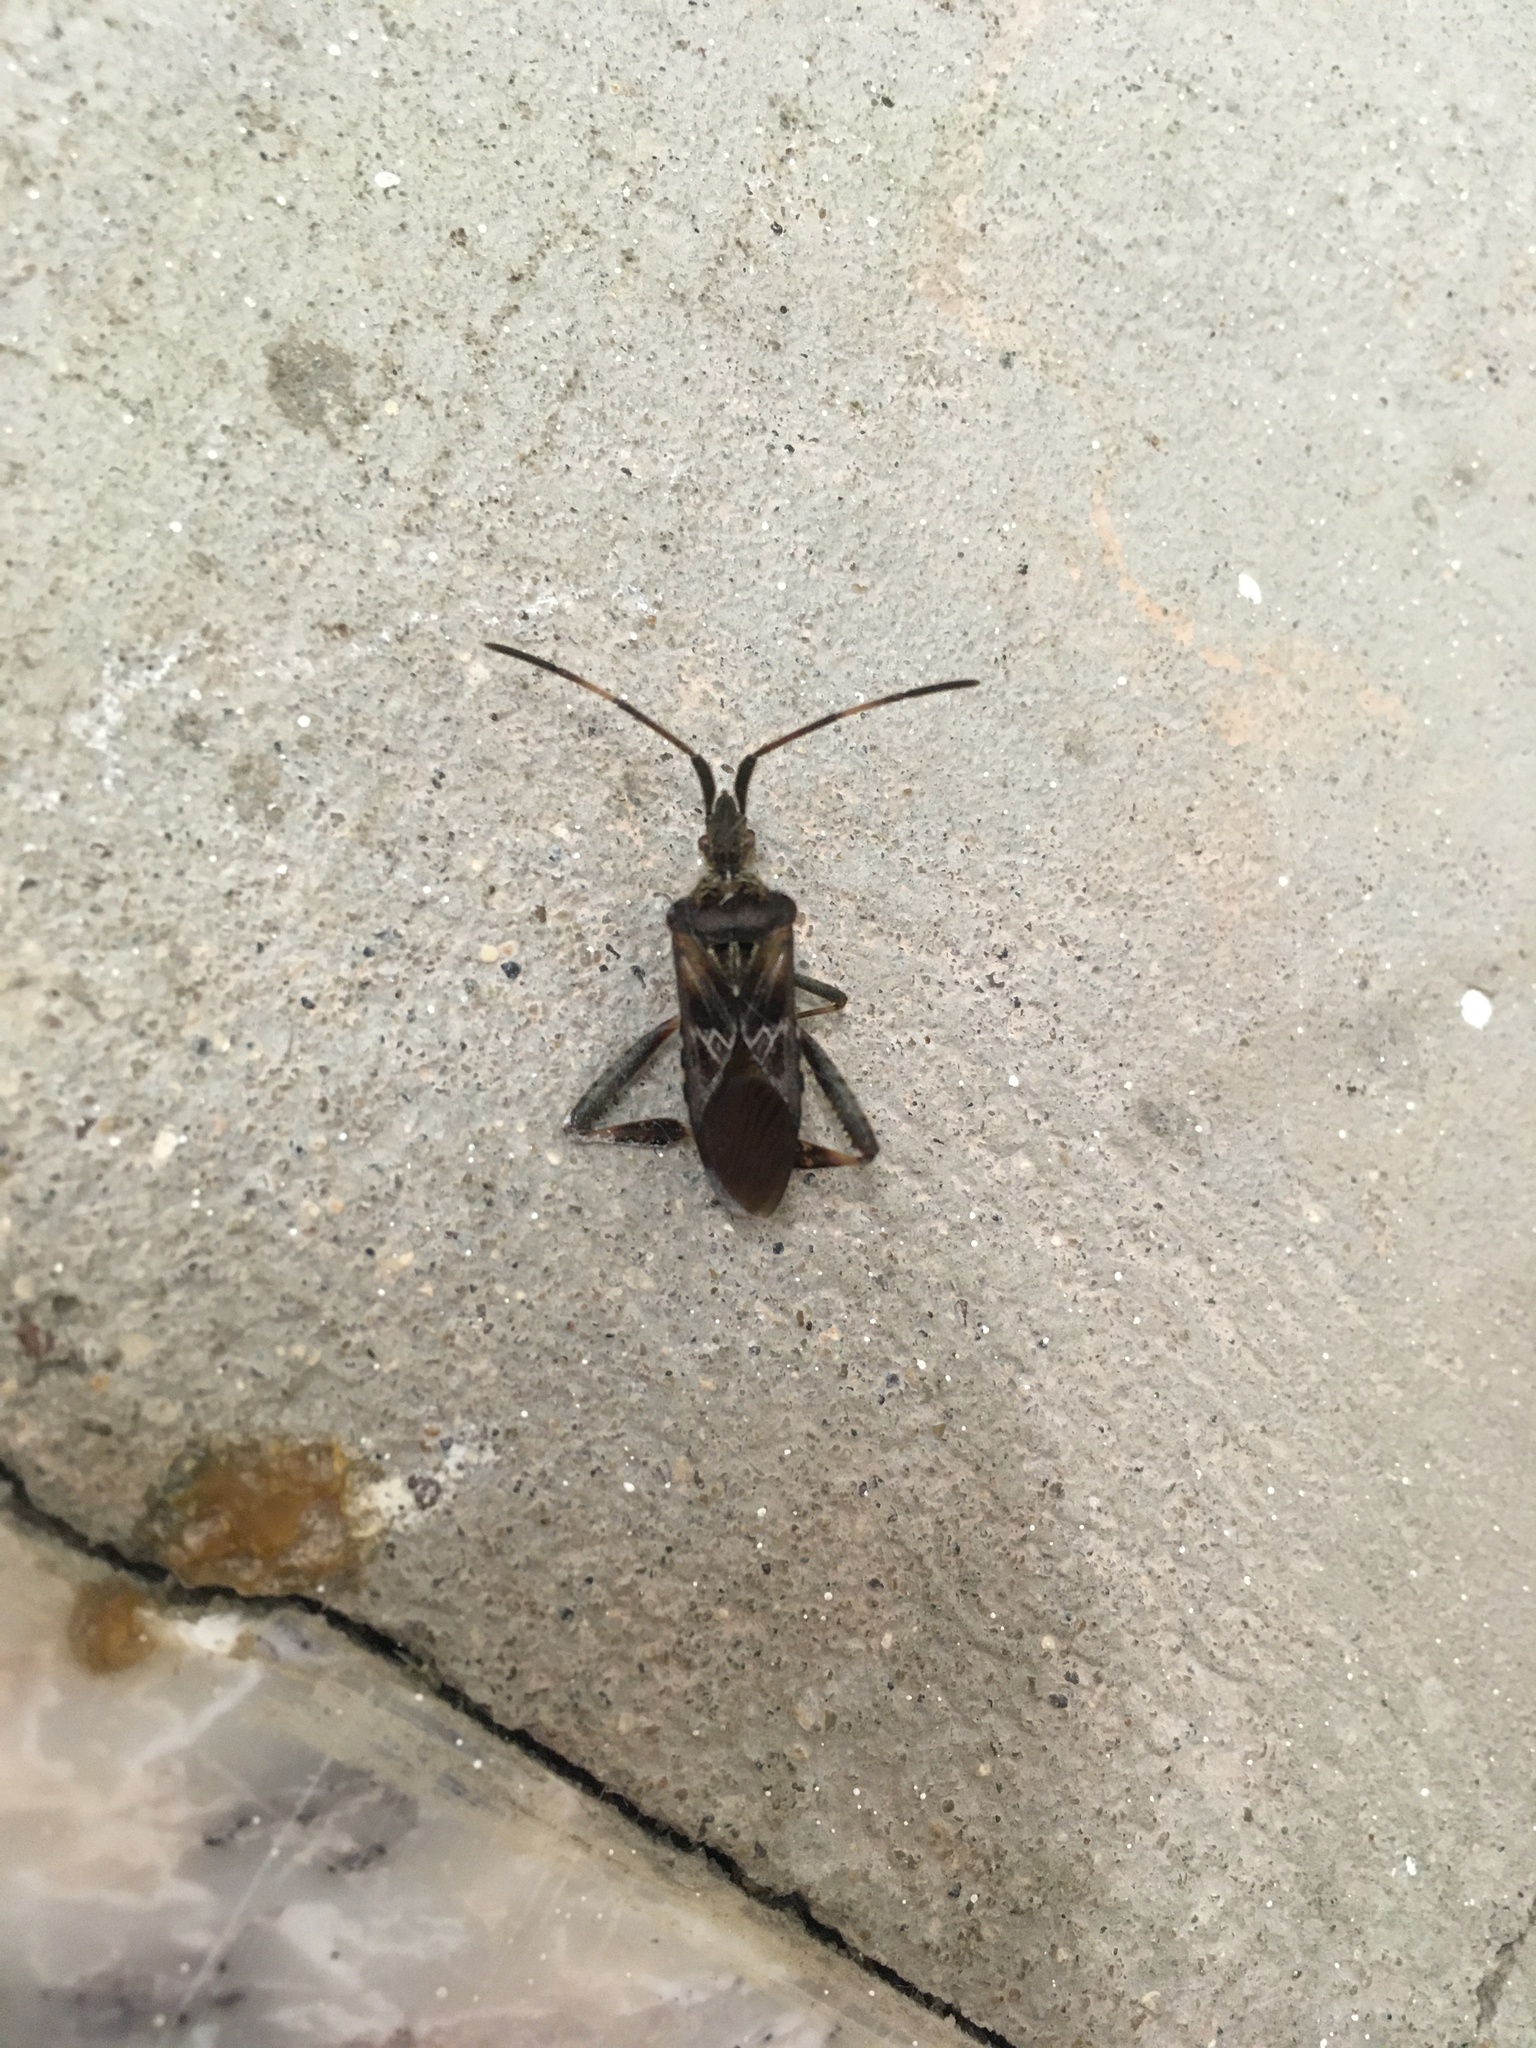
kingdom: Animalia
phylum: Arthropoda
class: Insecta
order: Hemiptera
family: Coreidae
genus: Leptoglossus
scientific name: Leptoglossus occidentalis
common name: Western conifer-seed bug
